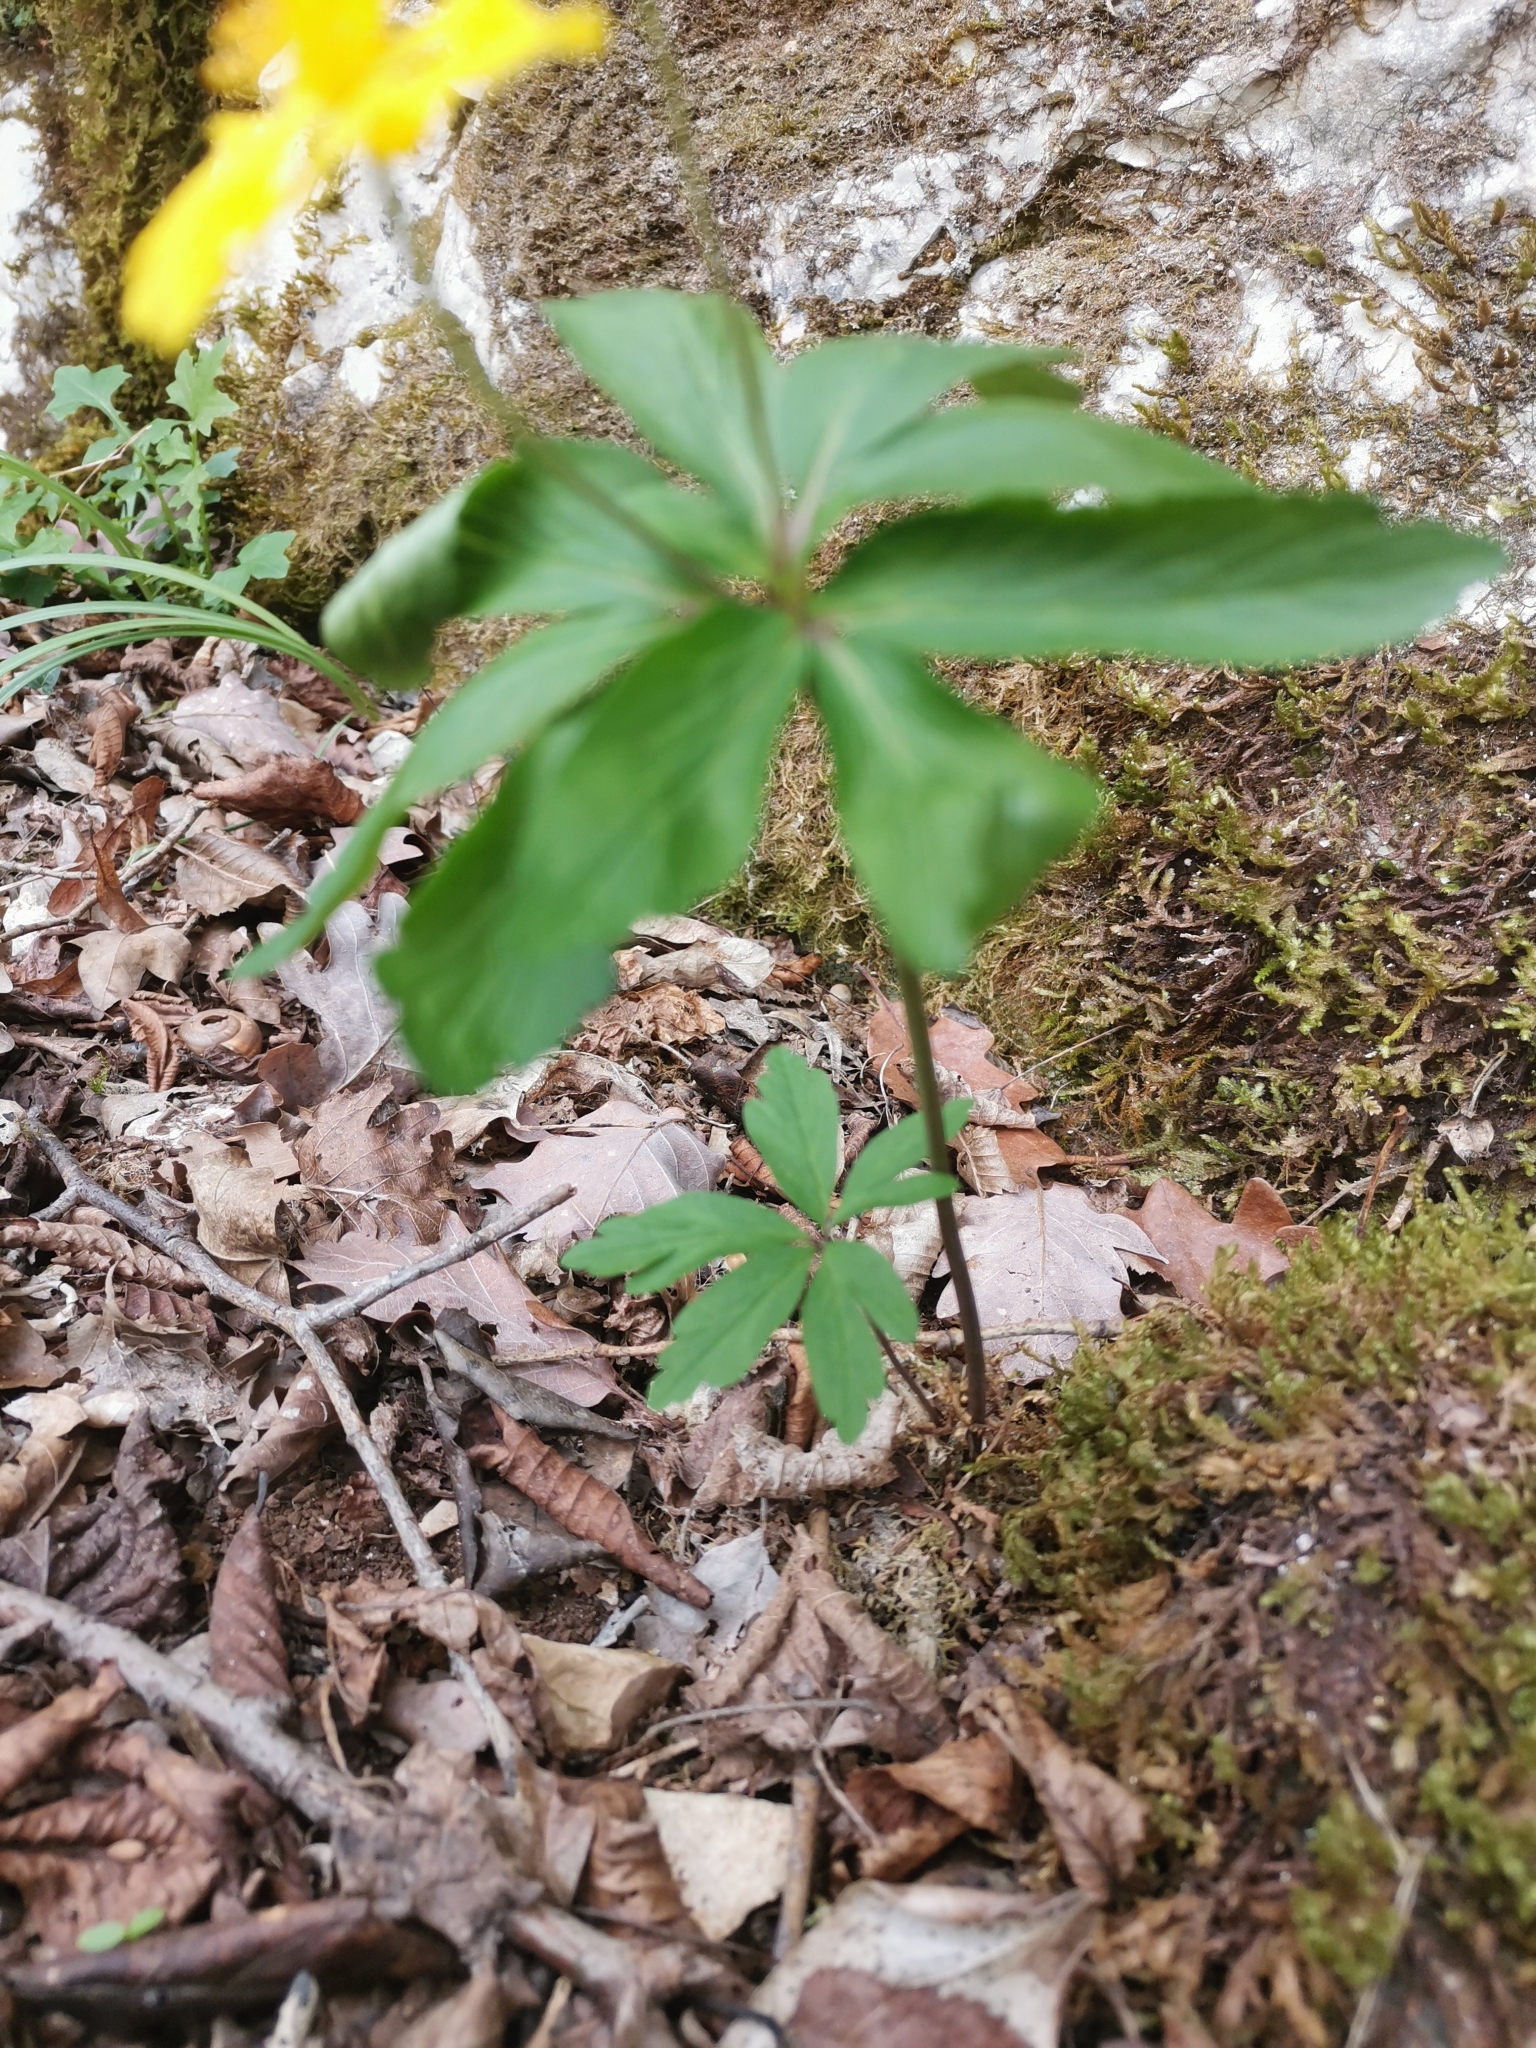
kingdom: Plantae
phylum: Tracheophyta
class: Magnoliopsida
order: Ranunculales
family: Ranunculaceae
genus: Anemone
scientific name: Anemone ranunculoides
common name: Yellow anemone
